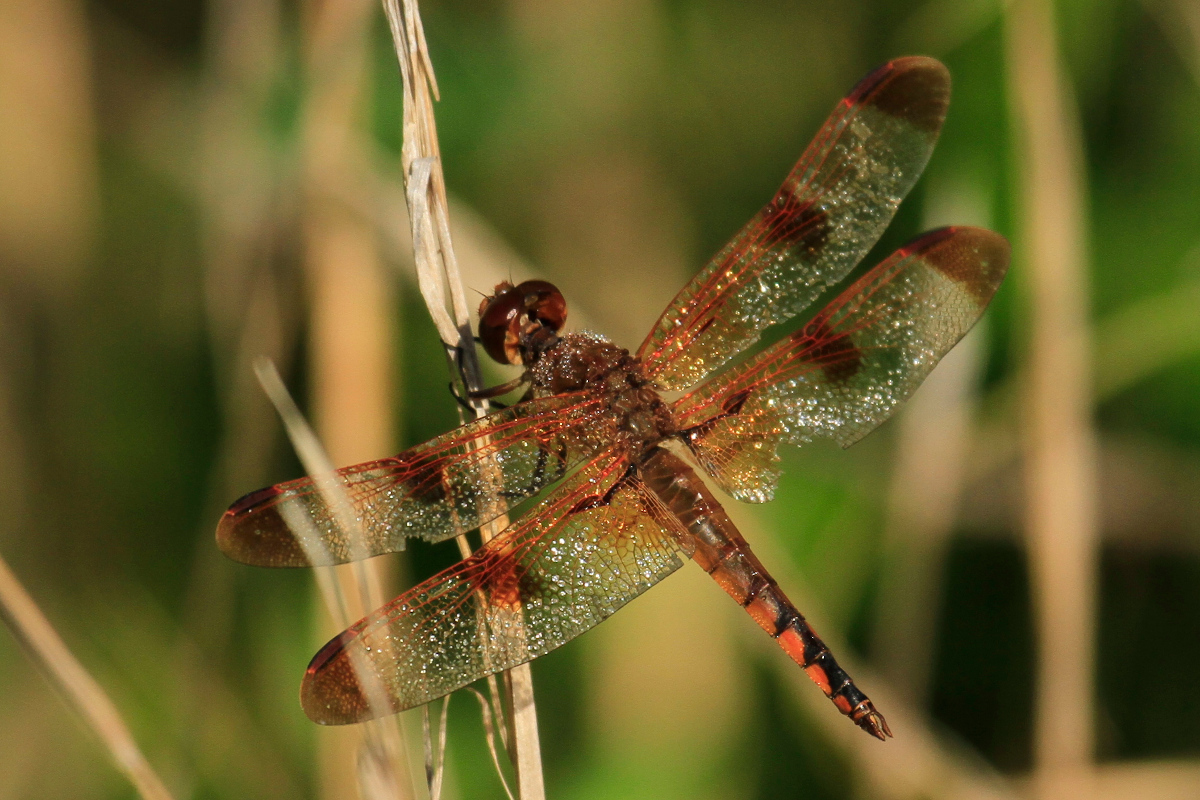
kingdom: Animalia
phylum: Arthropoda
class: Insecta
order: Odonata
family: Libellulidae
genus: Libellula
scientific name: Libellula semifasciata
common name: Painted skimmer
